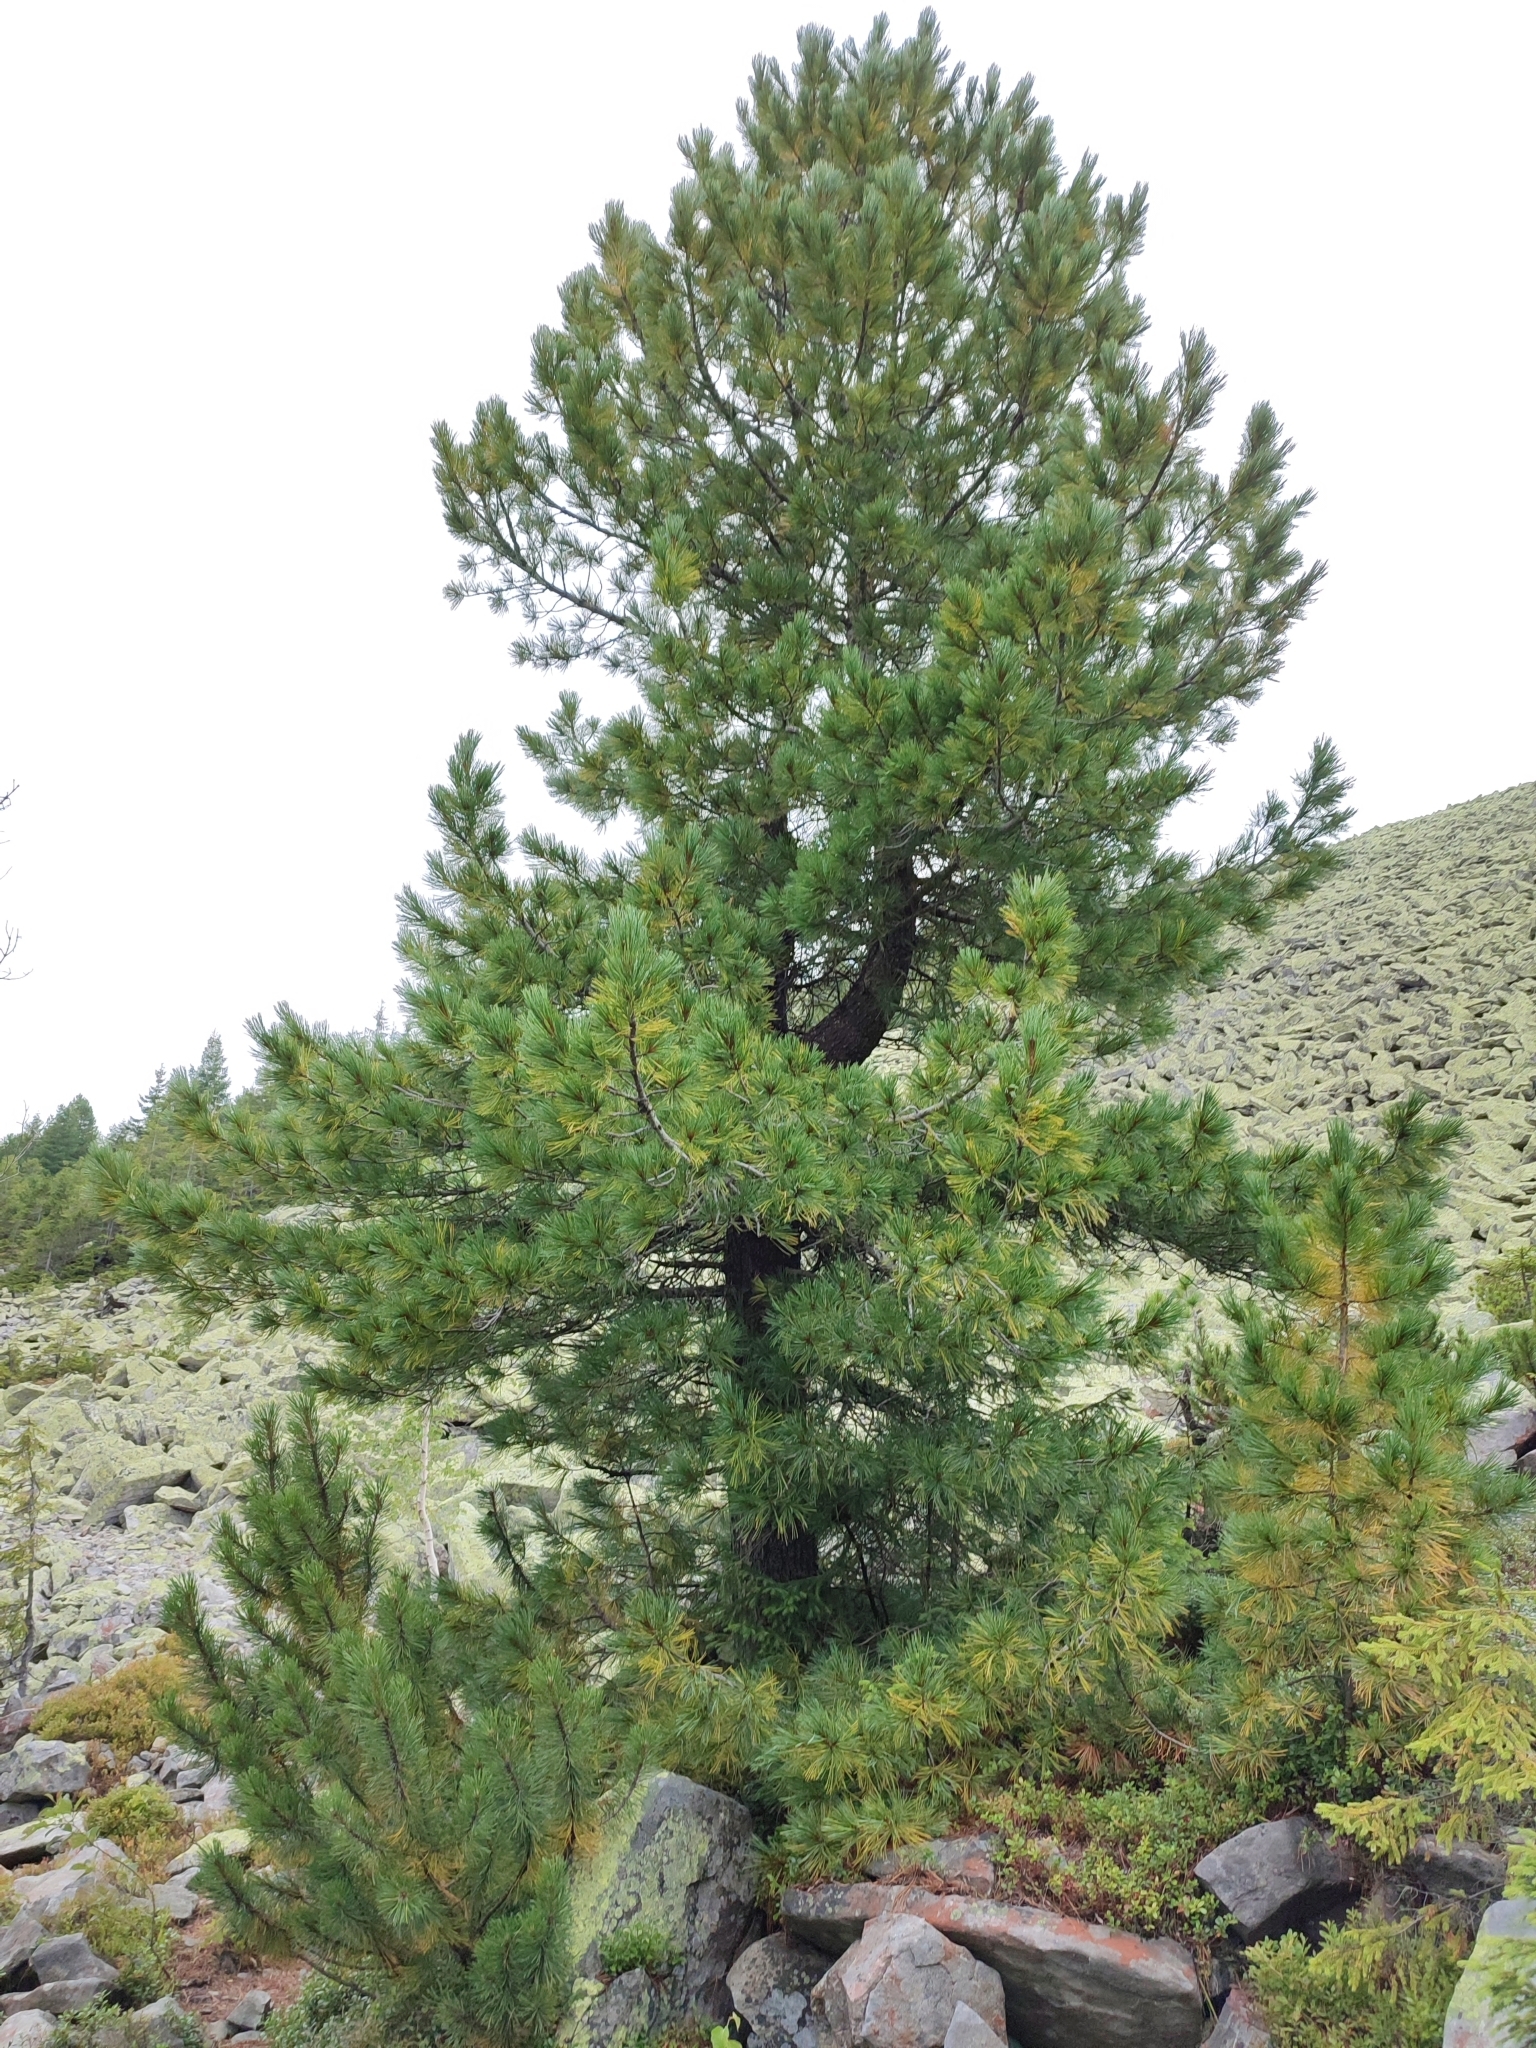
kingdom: Plantae
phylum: Tracheophyta
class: Pinopsida
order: Pinales
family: Pinaceae
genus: Pinus
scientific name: Pinus cembra
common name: Arolla pine
